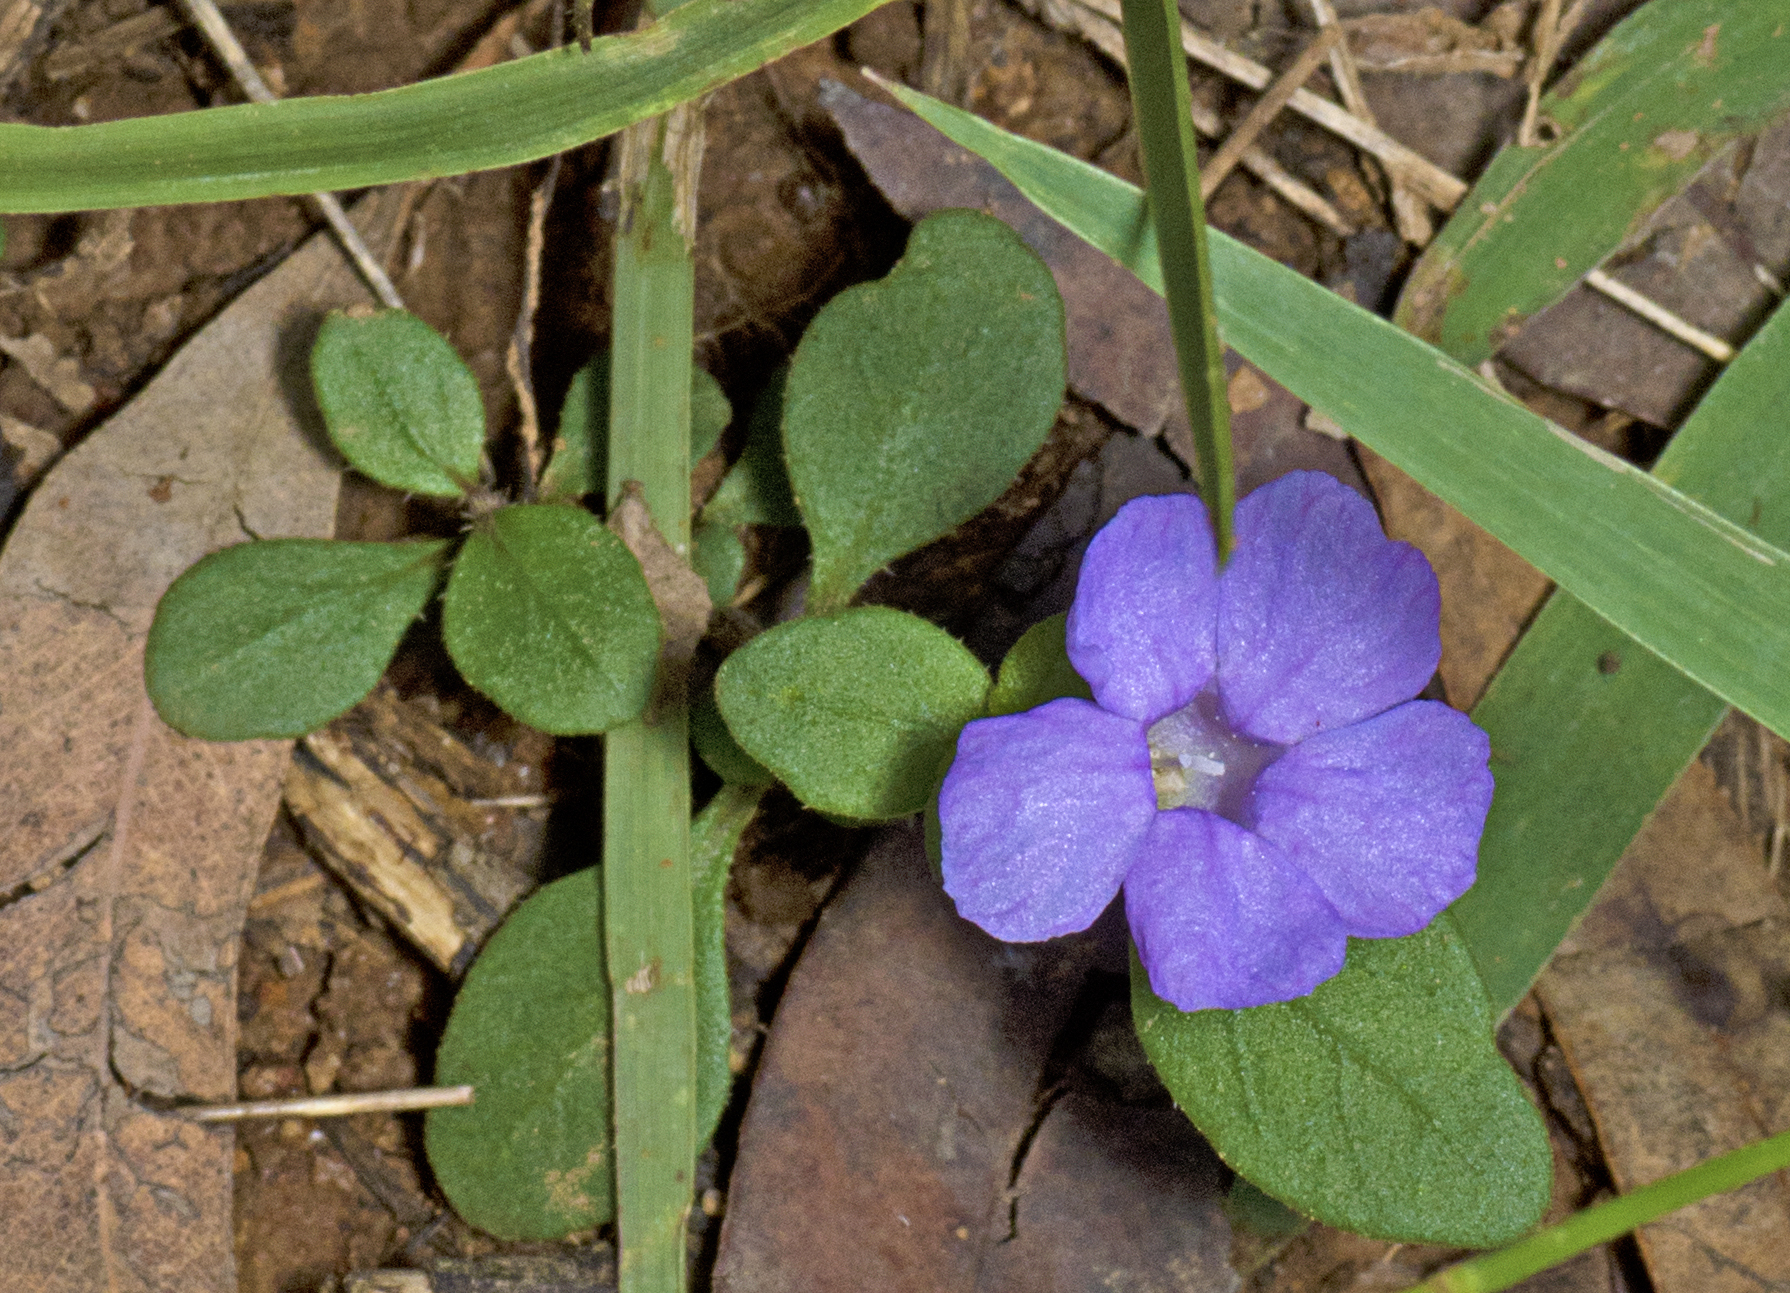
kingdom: Plantae
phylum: Tracheophyta
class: Magnoliopsida
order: Lamiales
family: Acanthaceae
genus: Brunoniella
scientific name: Brunoniella australis
